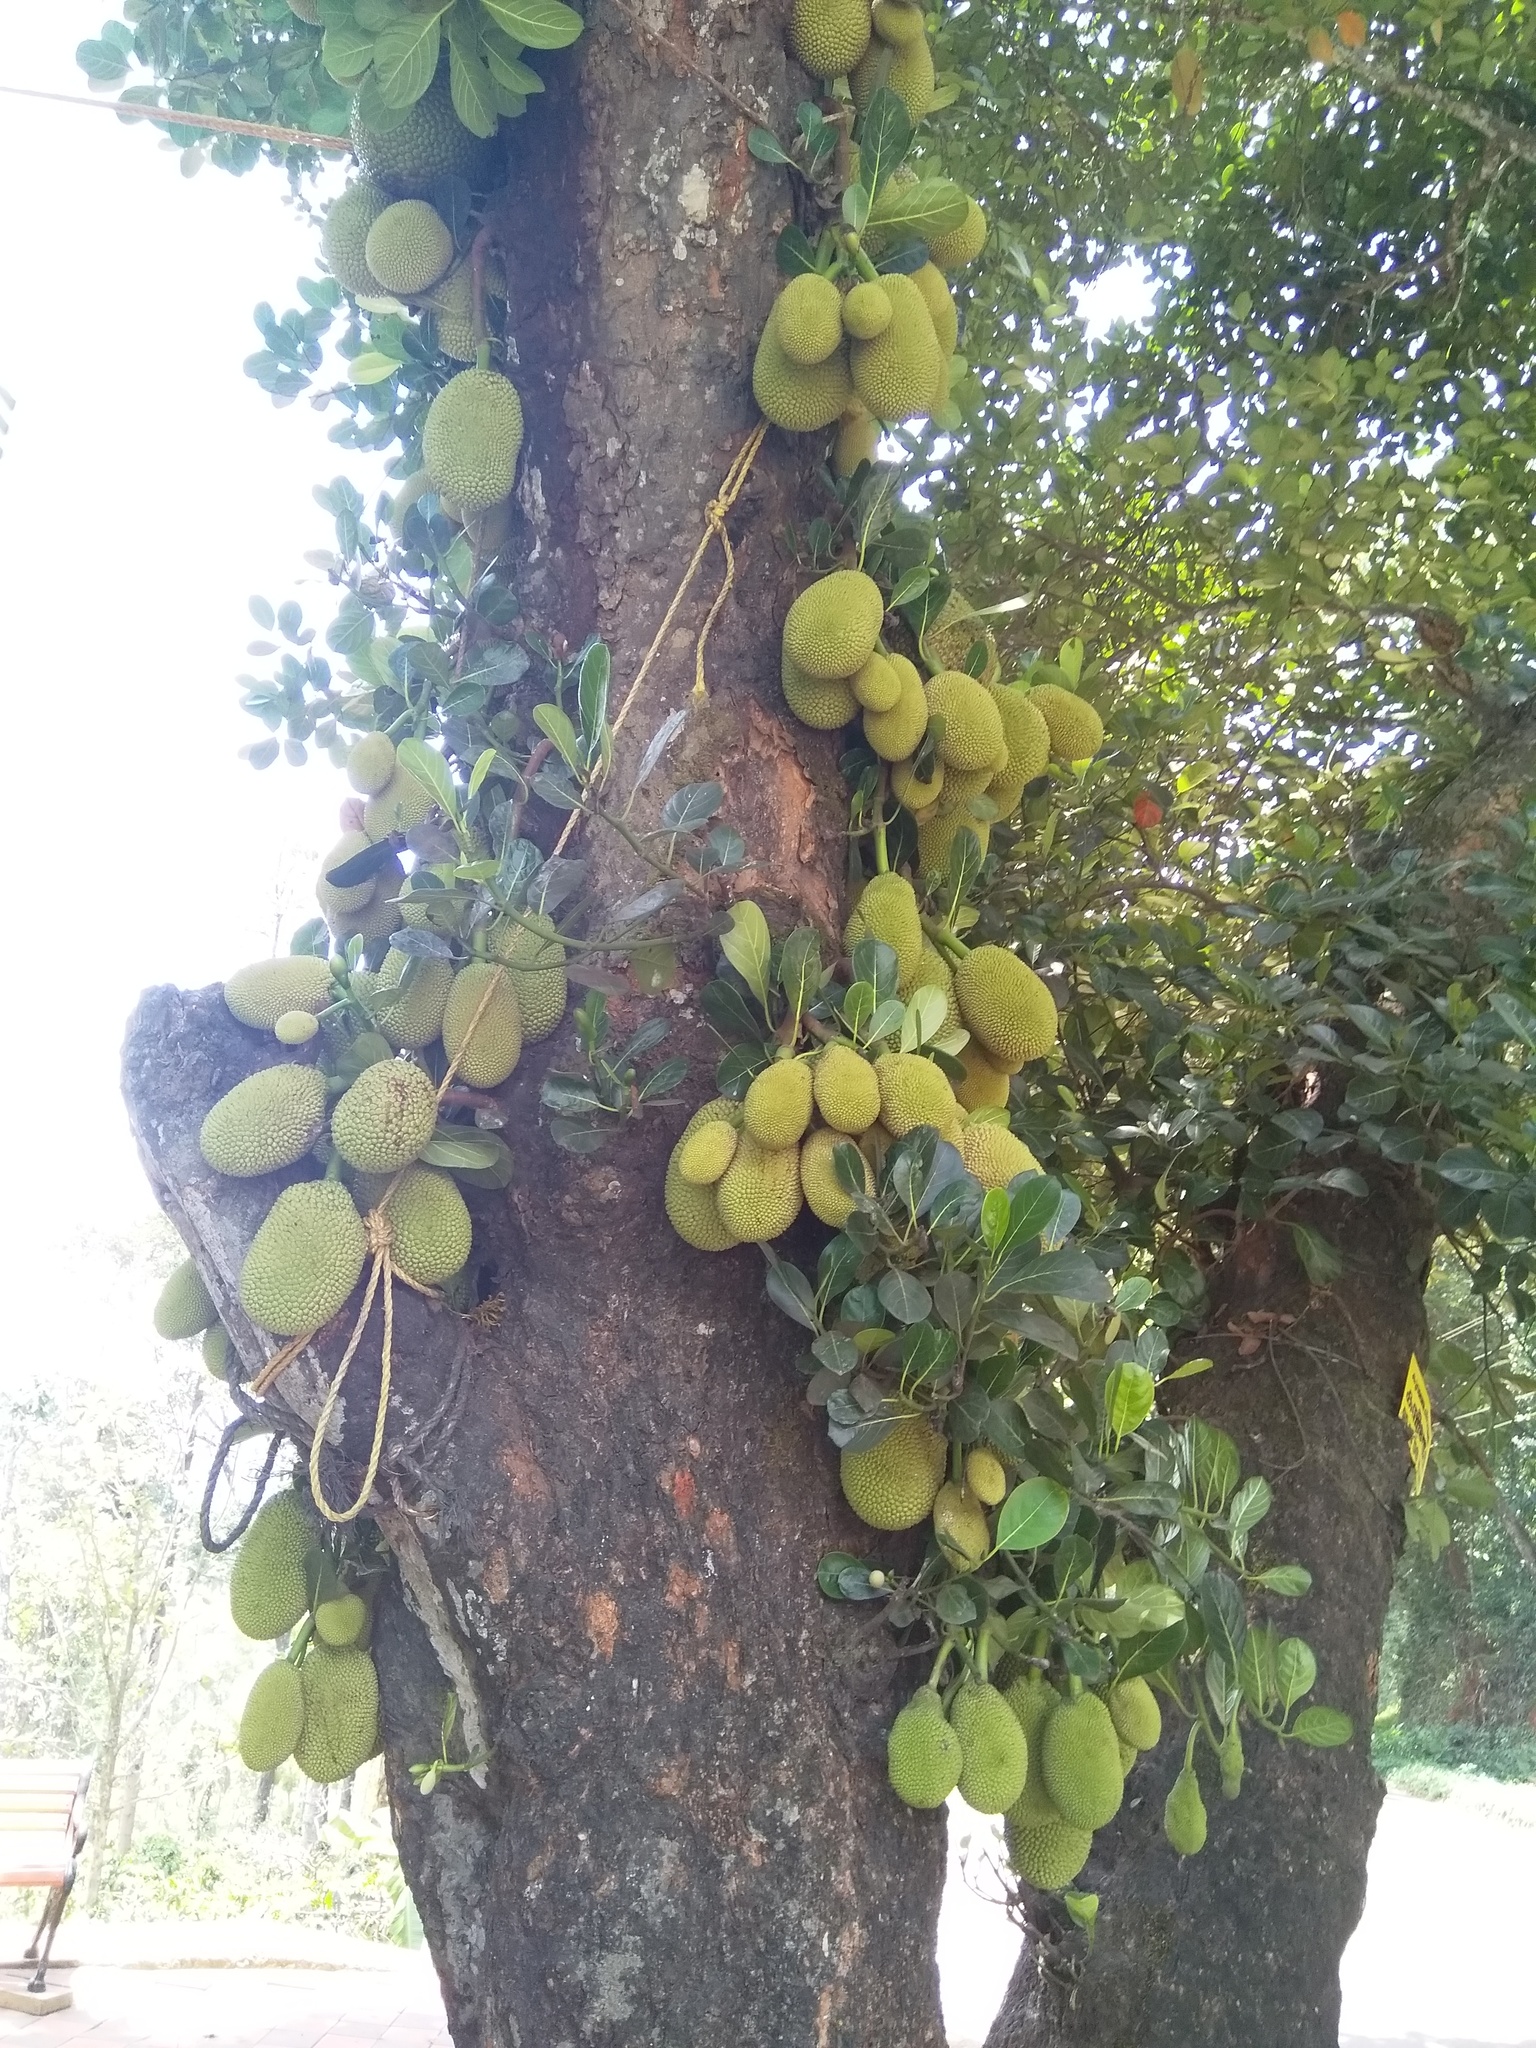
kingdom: Plantae
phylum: Tracheophyta
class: Magnoliopsida
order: Rosales
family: Moraceae
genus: Artocarpus
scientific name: Artocarpus heterophyllus
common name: Jackfruit
